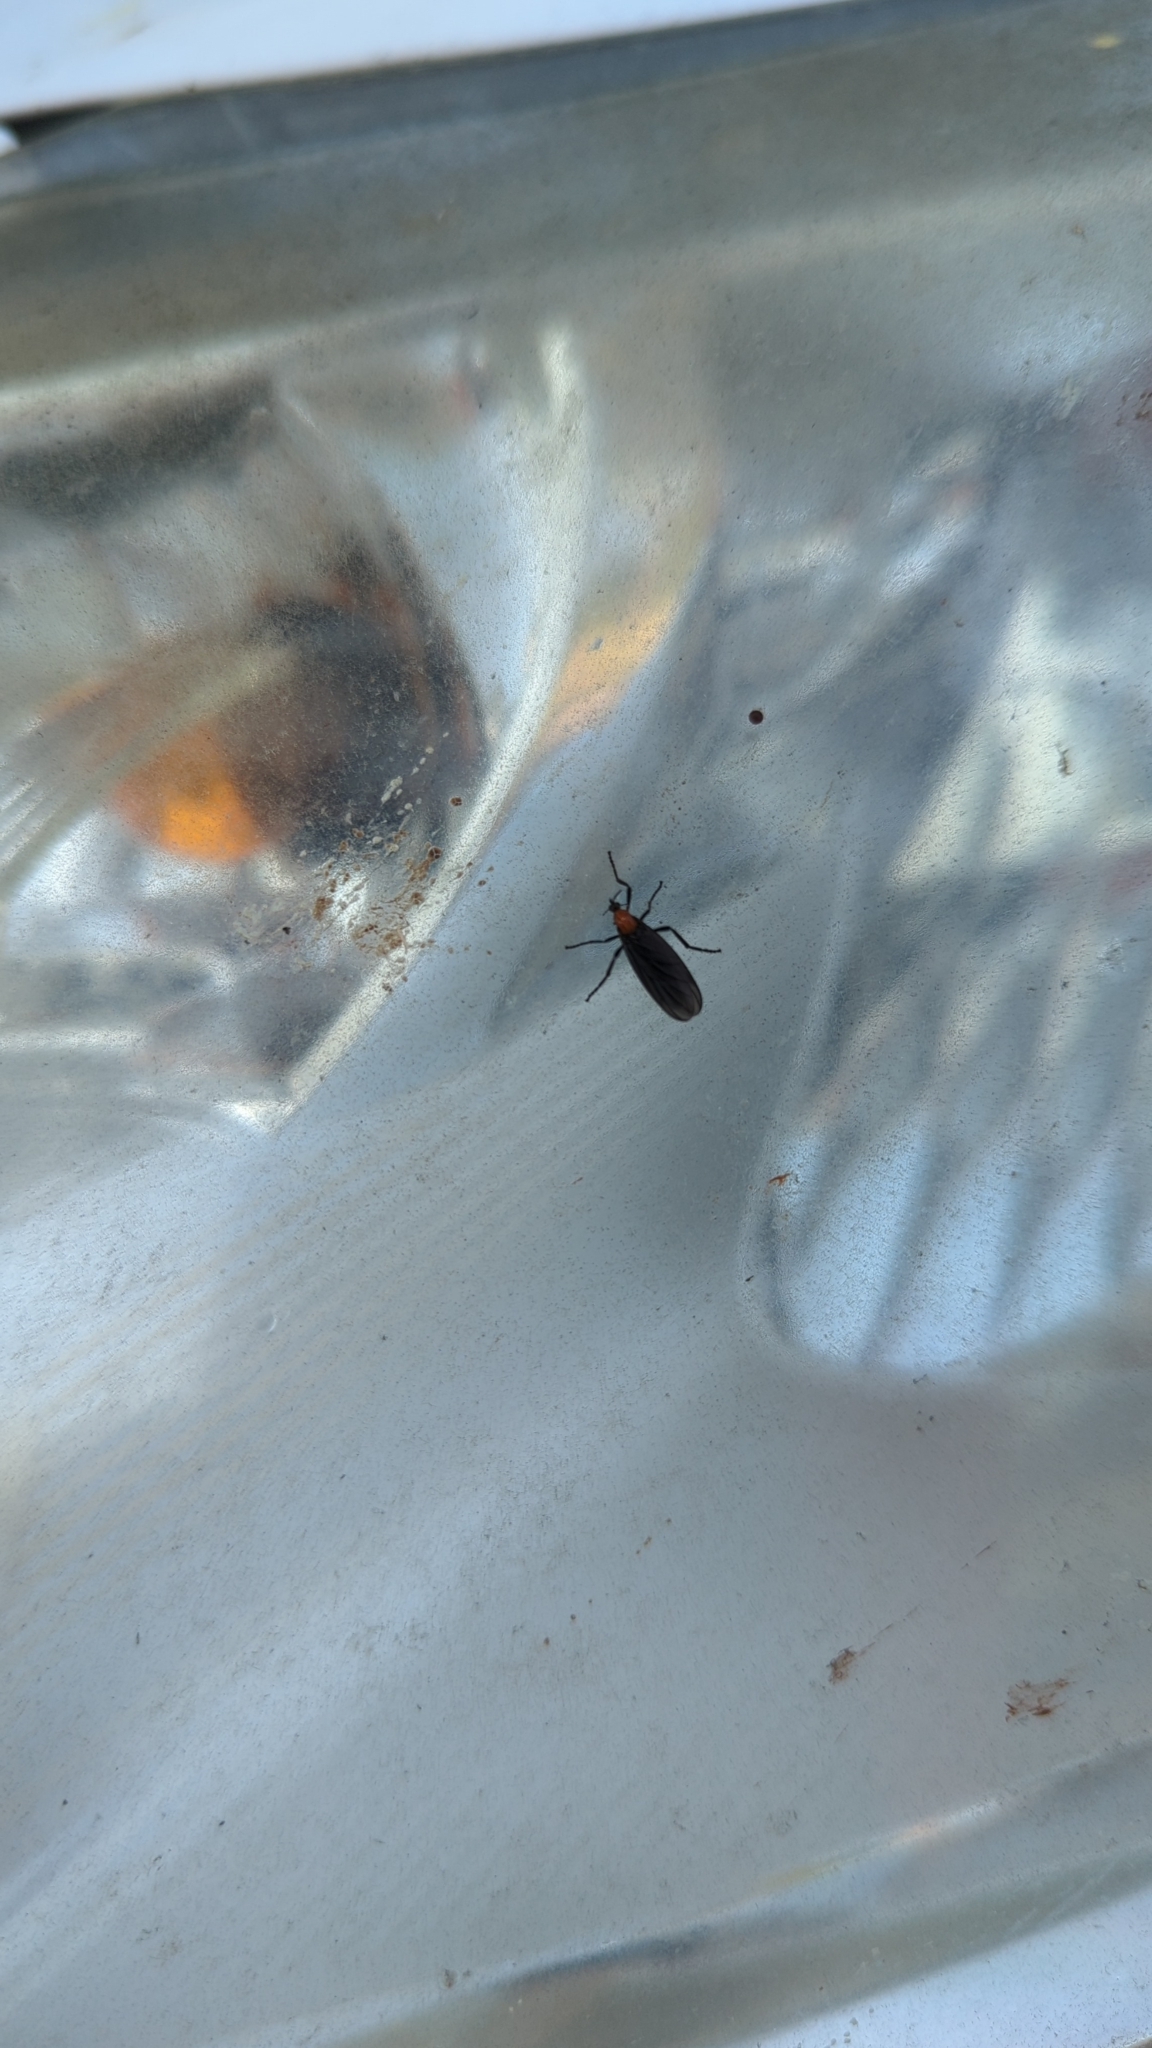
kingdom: Animalia
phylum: Arthropoda
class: Insecta
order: Diptera
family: Bibionidae
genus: Plecia
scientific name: Plecia nearctica
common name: March fly
